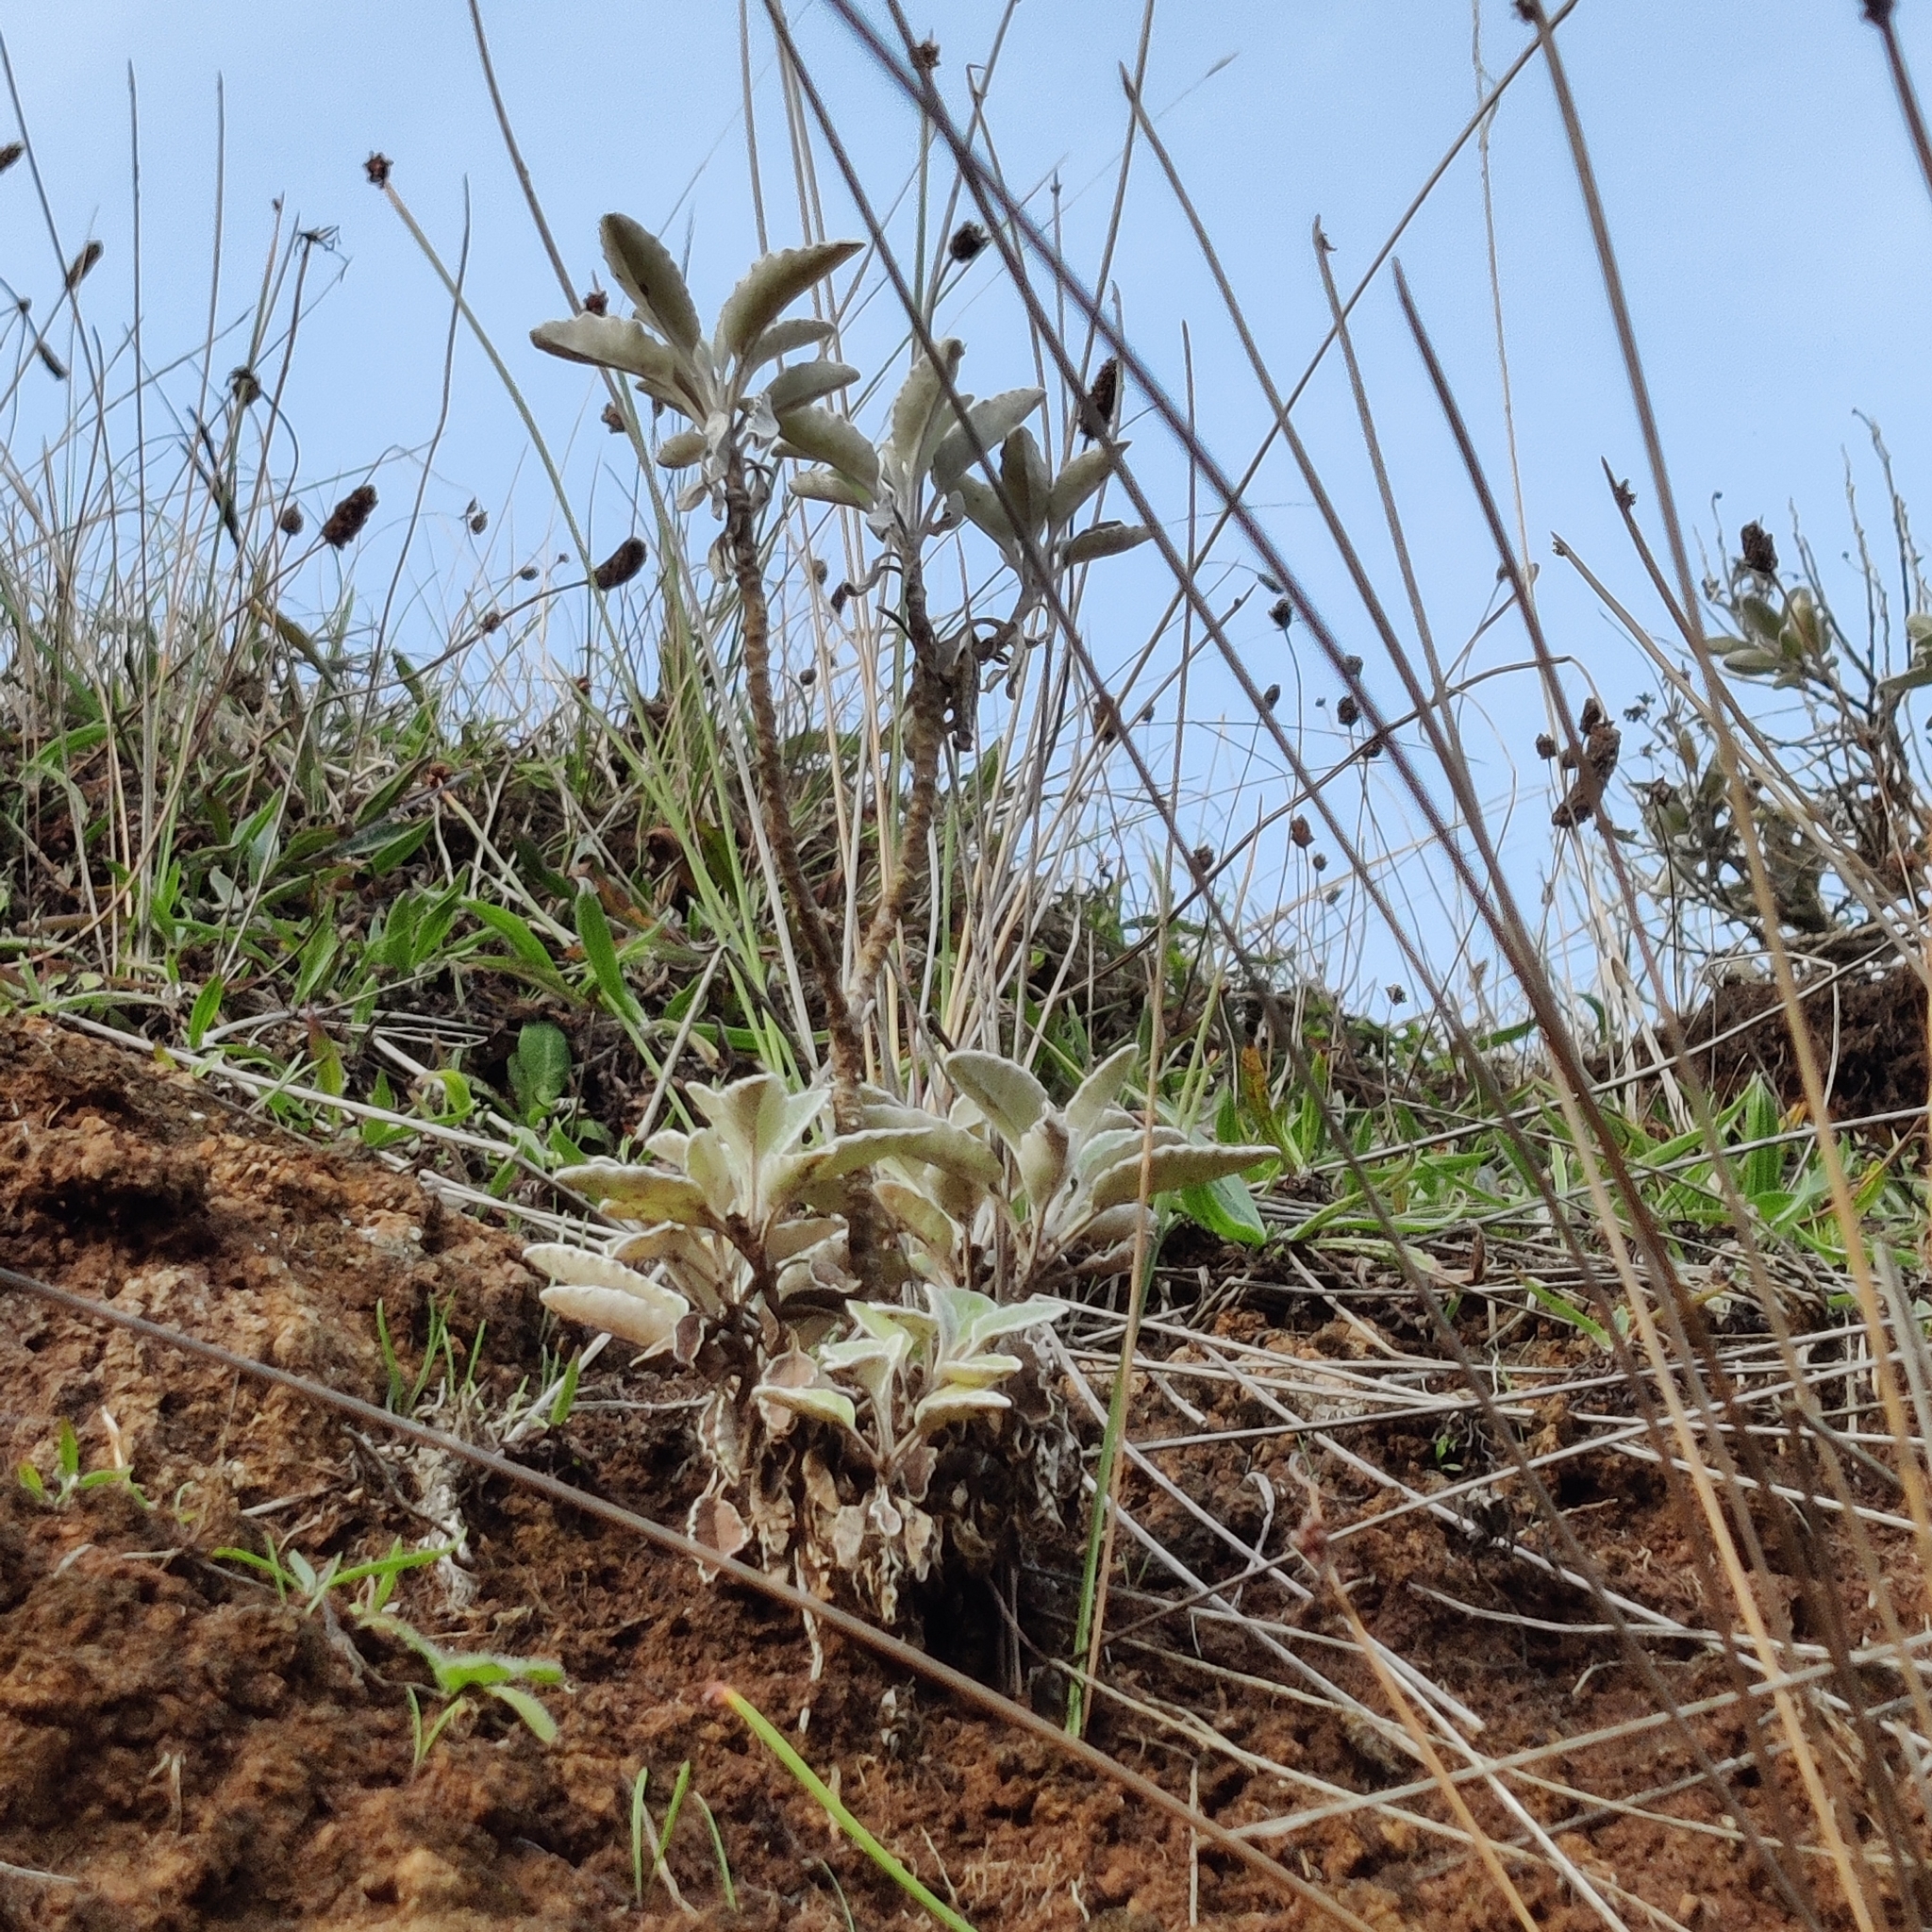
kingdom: Plantae
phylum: Tracheophyta
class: Magnoliopsida
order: Asterales
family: Asteraceae
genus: Brachyglottis
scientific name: Brachyglottis greyi
